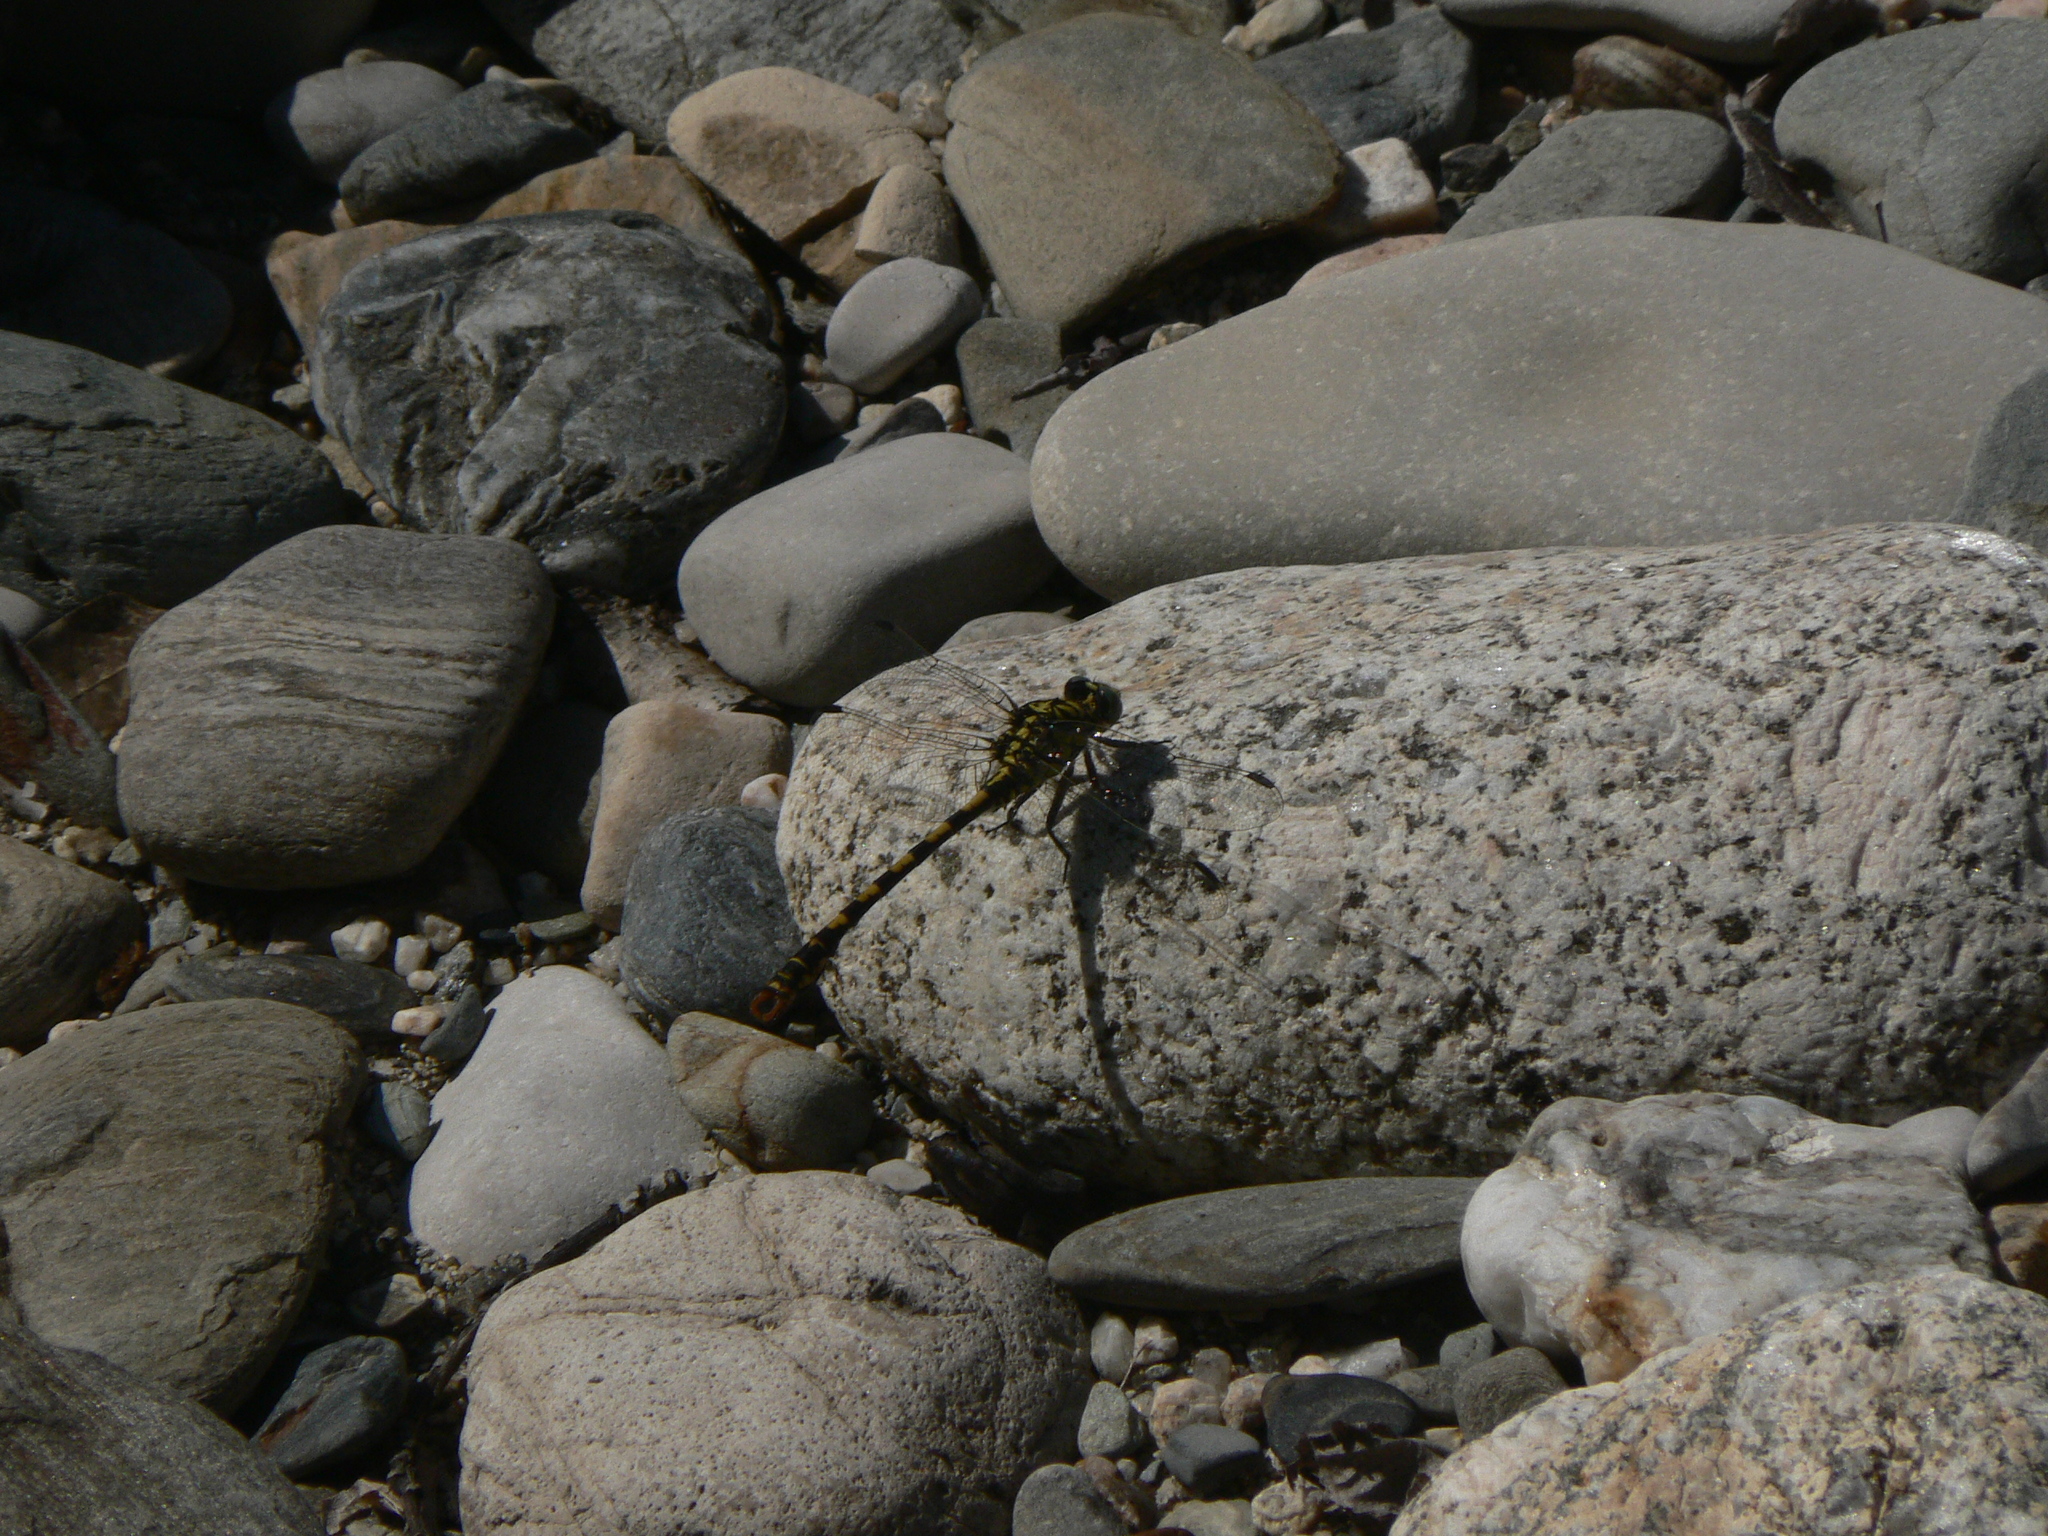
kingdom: Animalia
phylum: Arthropoda
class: Insecta
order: Odonata
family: Gomphidae
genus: Onychogomphus
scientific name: Onychogomphus forcipatus
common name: Small pincertail
